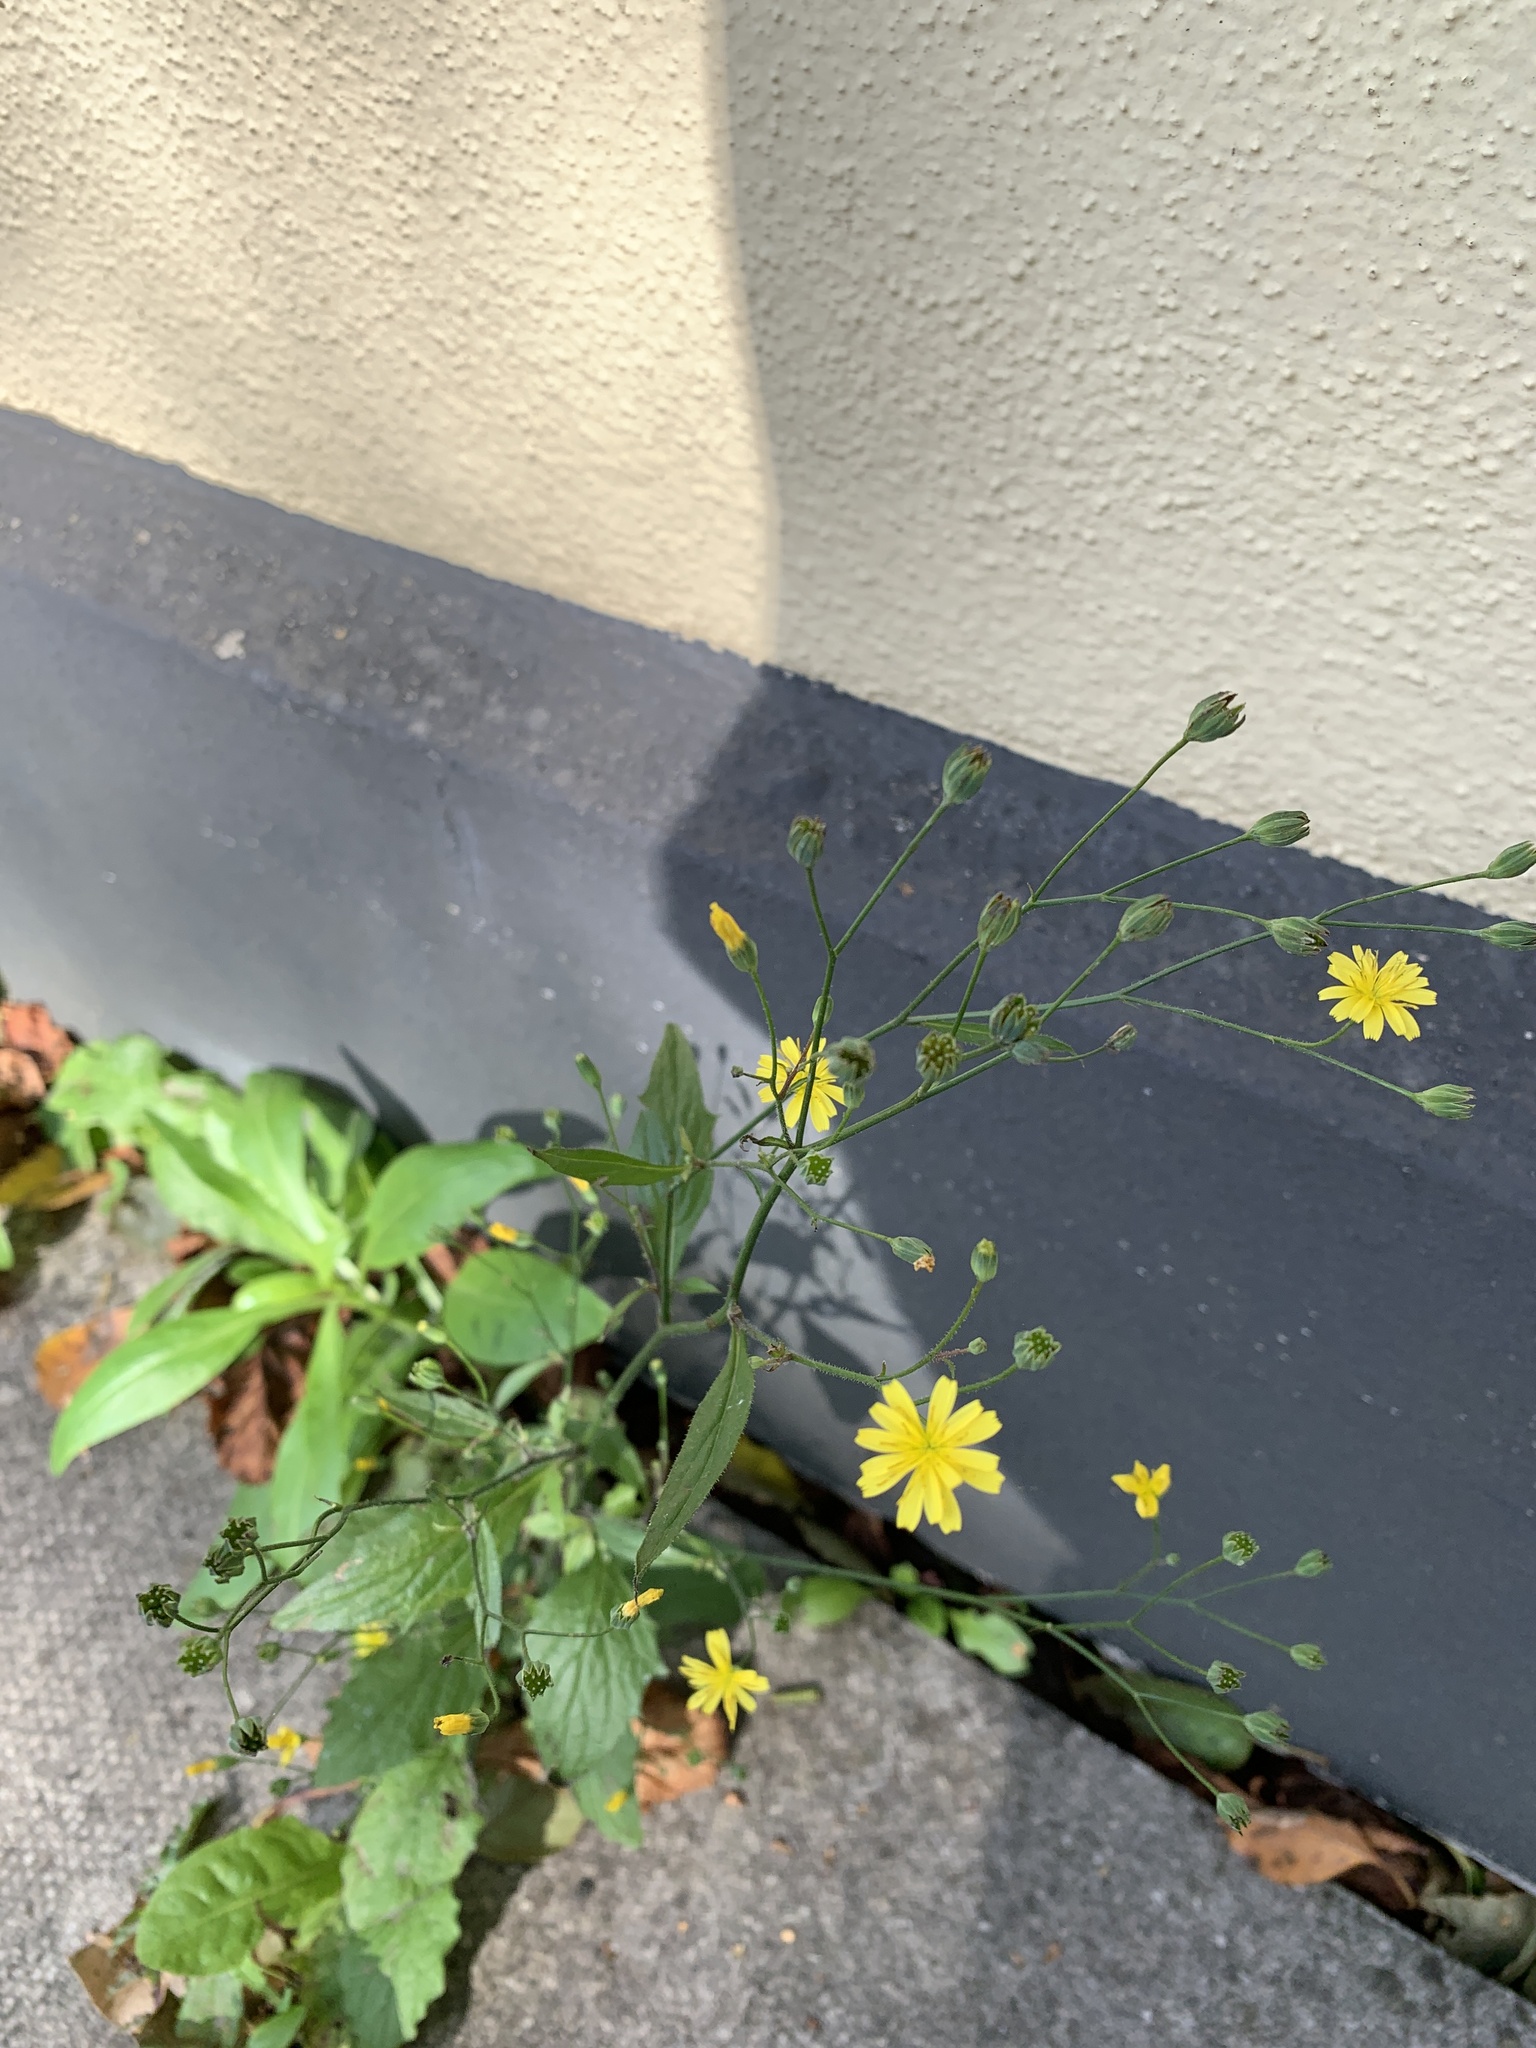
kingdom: Plantae
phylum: Tracheophyta
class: Magnoliopsida
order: Asterales
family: Asteraceae
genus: Lapsana
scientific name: Lapsana communis
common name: Nipplewort
